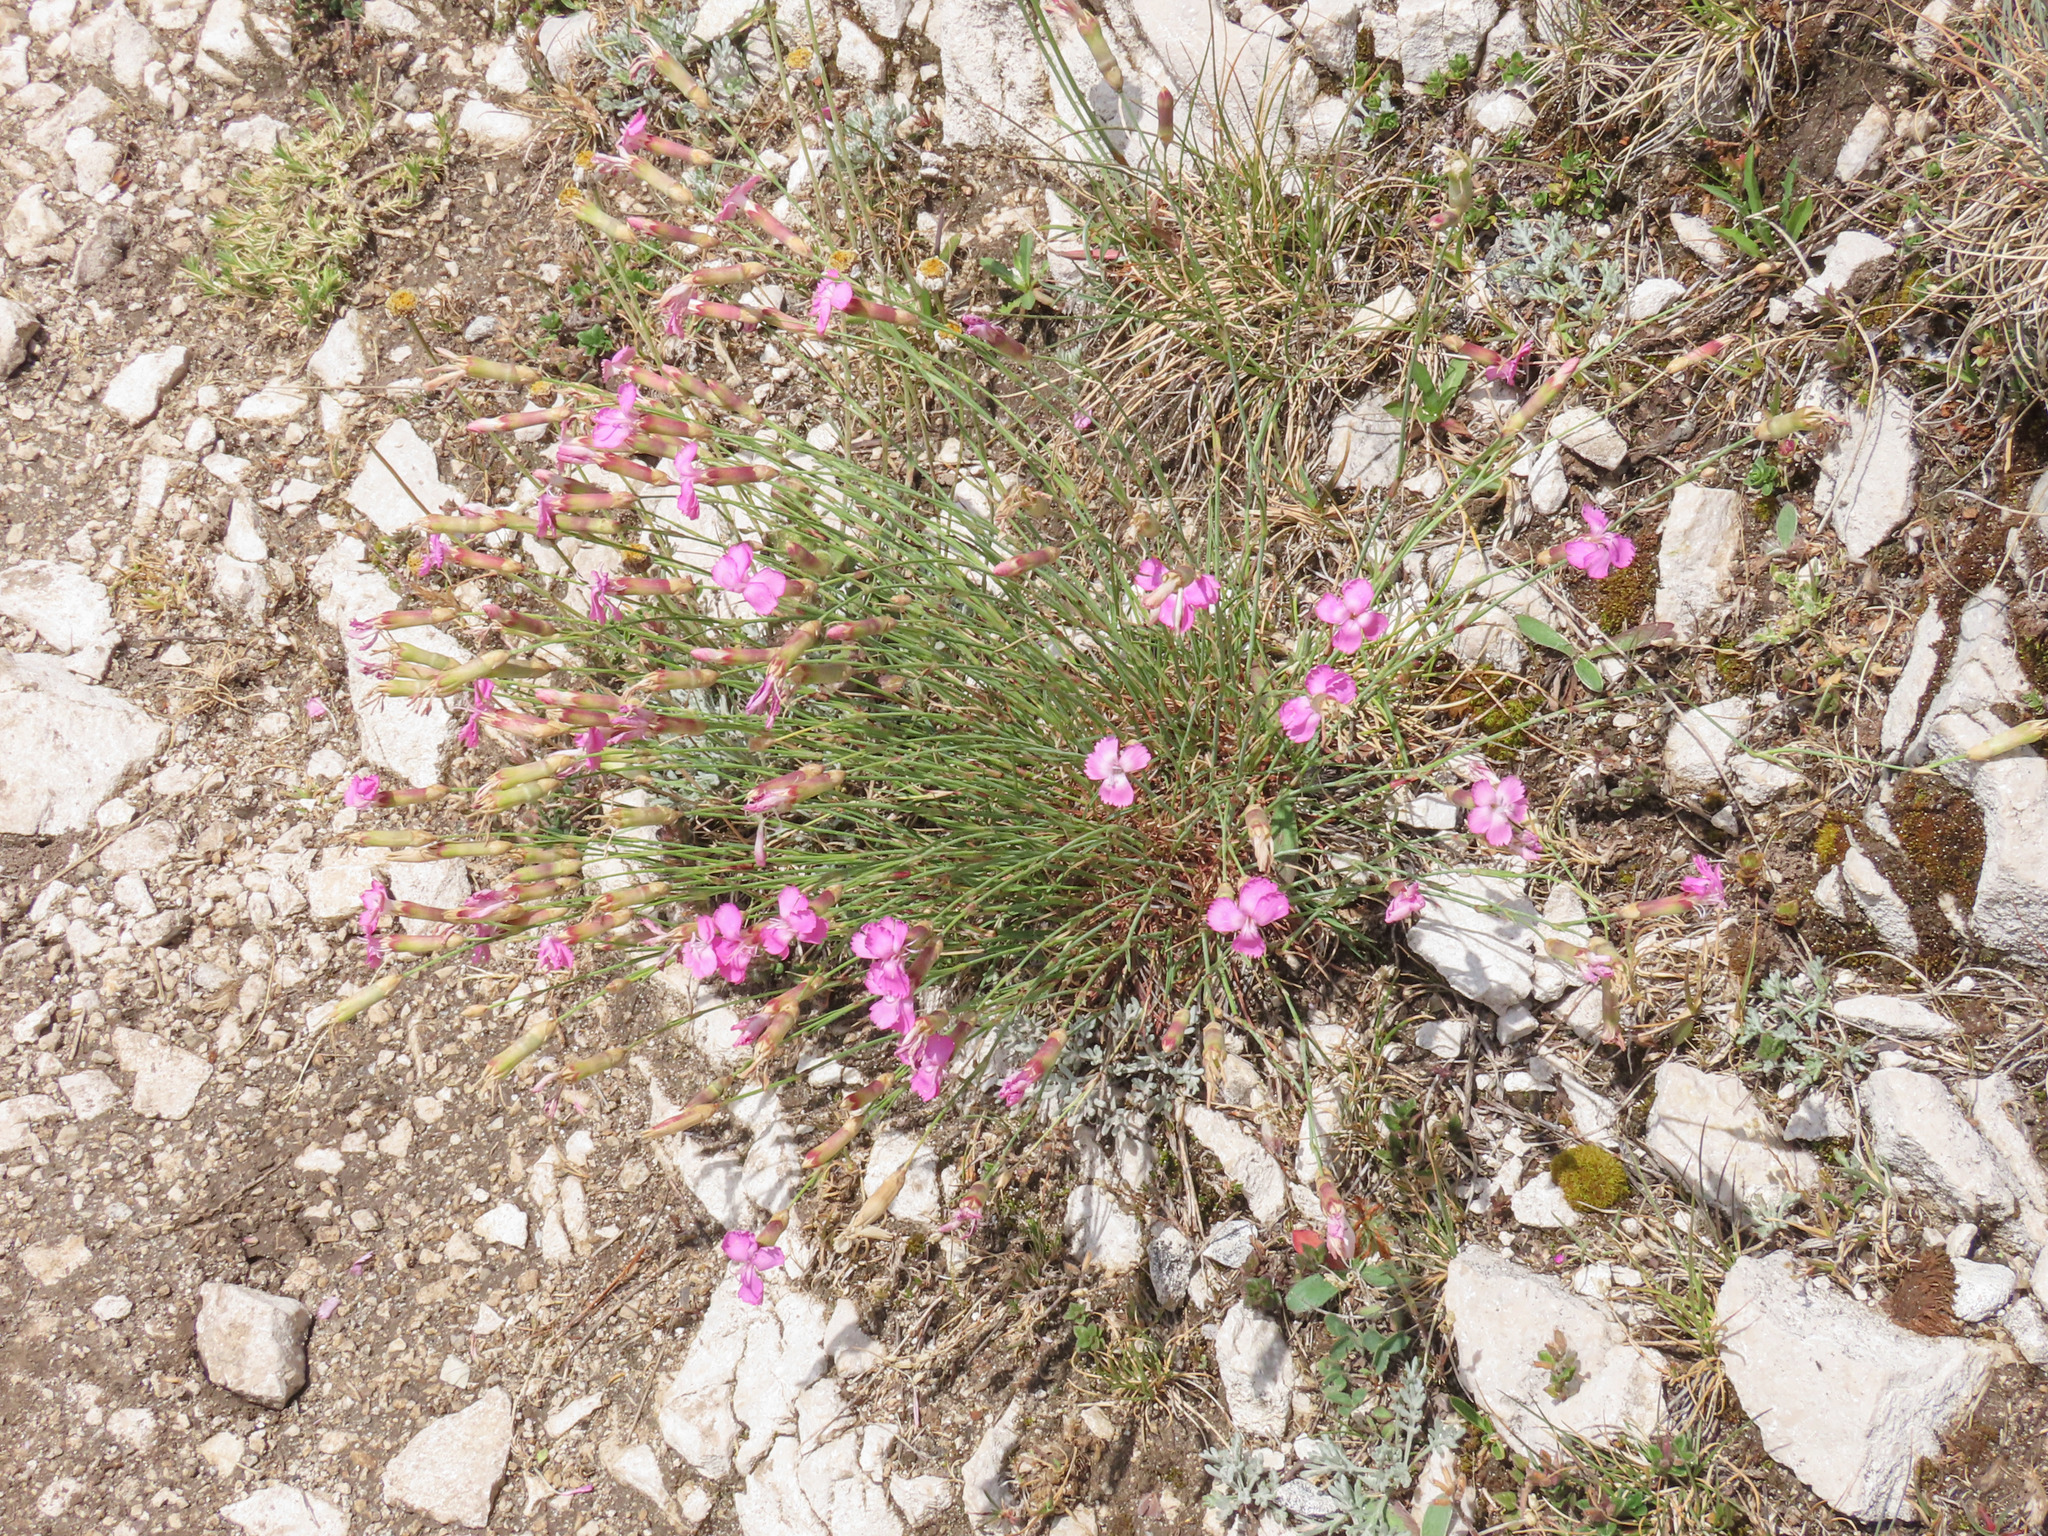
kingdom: Plantae
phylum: Tracheophyta
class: Magnoliopsida
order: Caryophyllales
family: Caryophyllaceae
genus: Dianthus
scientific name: Dianthus brachycalyx
